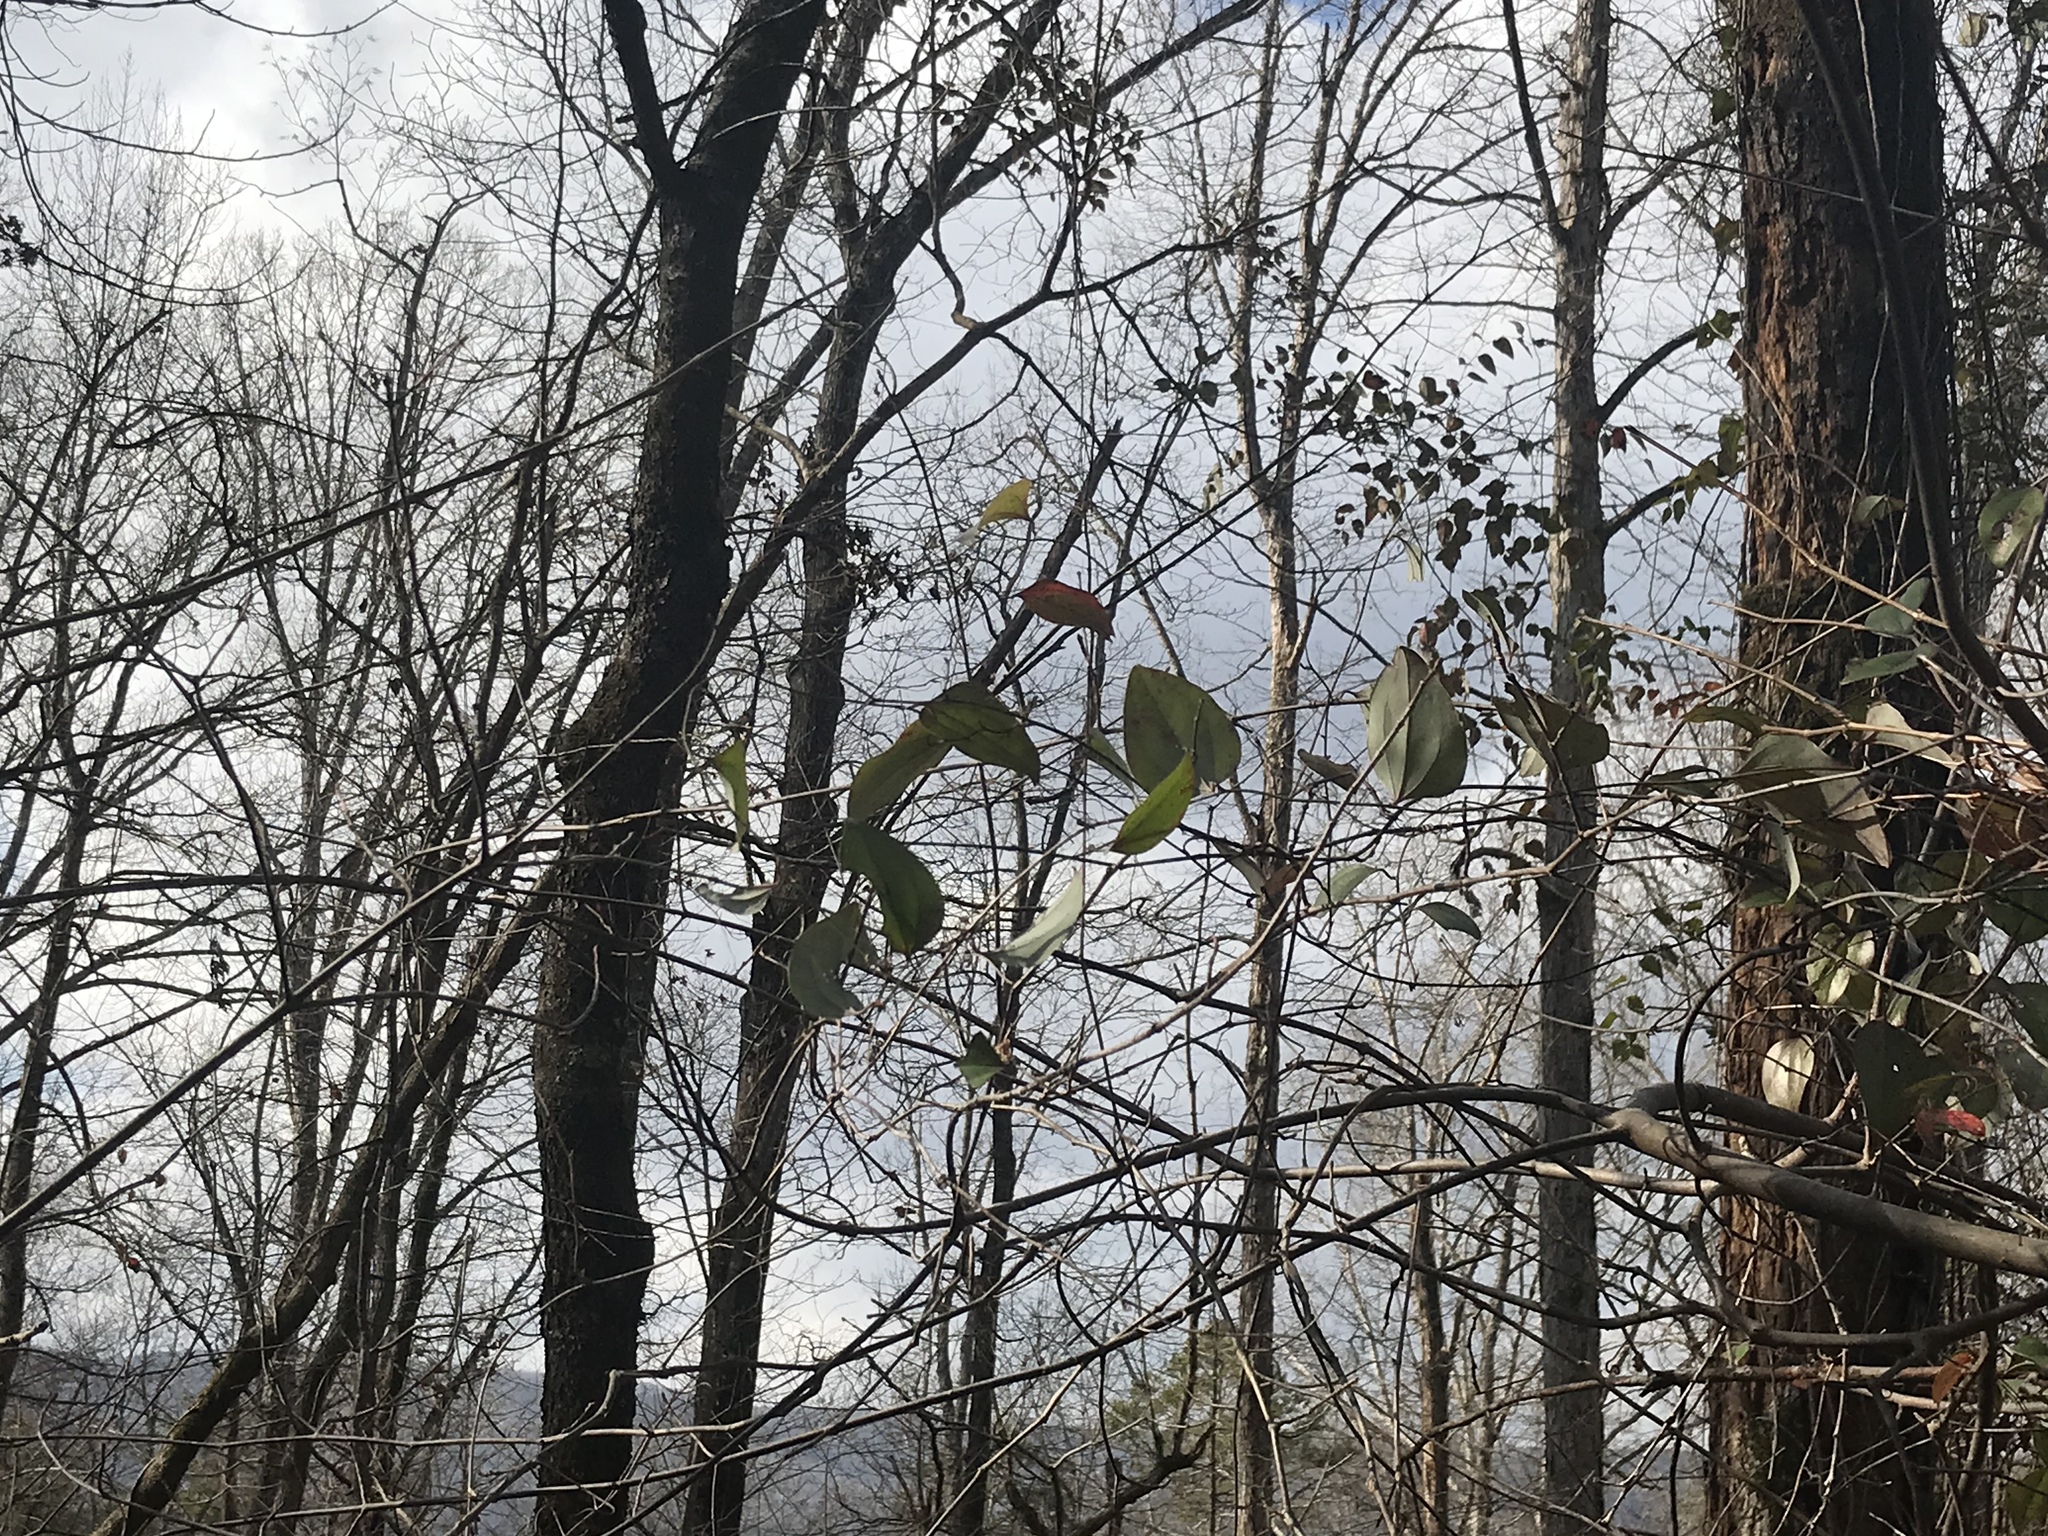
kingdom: Plantae
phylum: Tracheophyta
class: Liliopsida
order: Liliales
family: Smilacaceae
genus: Smilax
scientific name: Smilax rotundifolia
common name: Bullbriar
